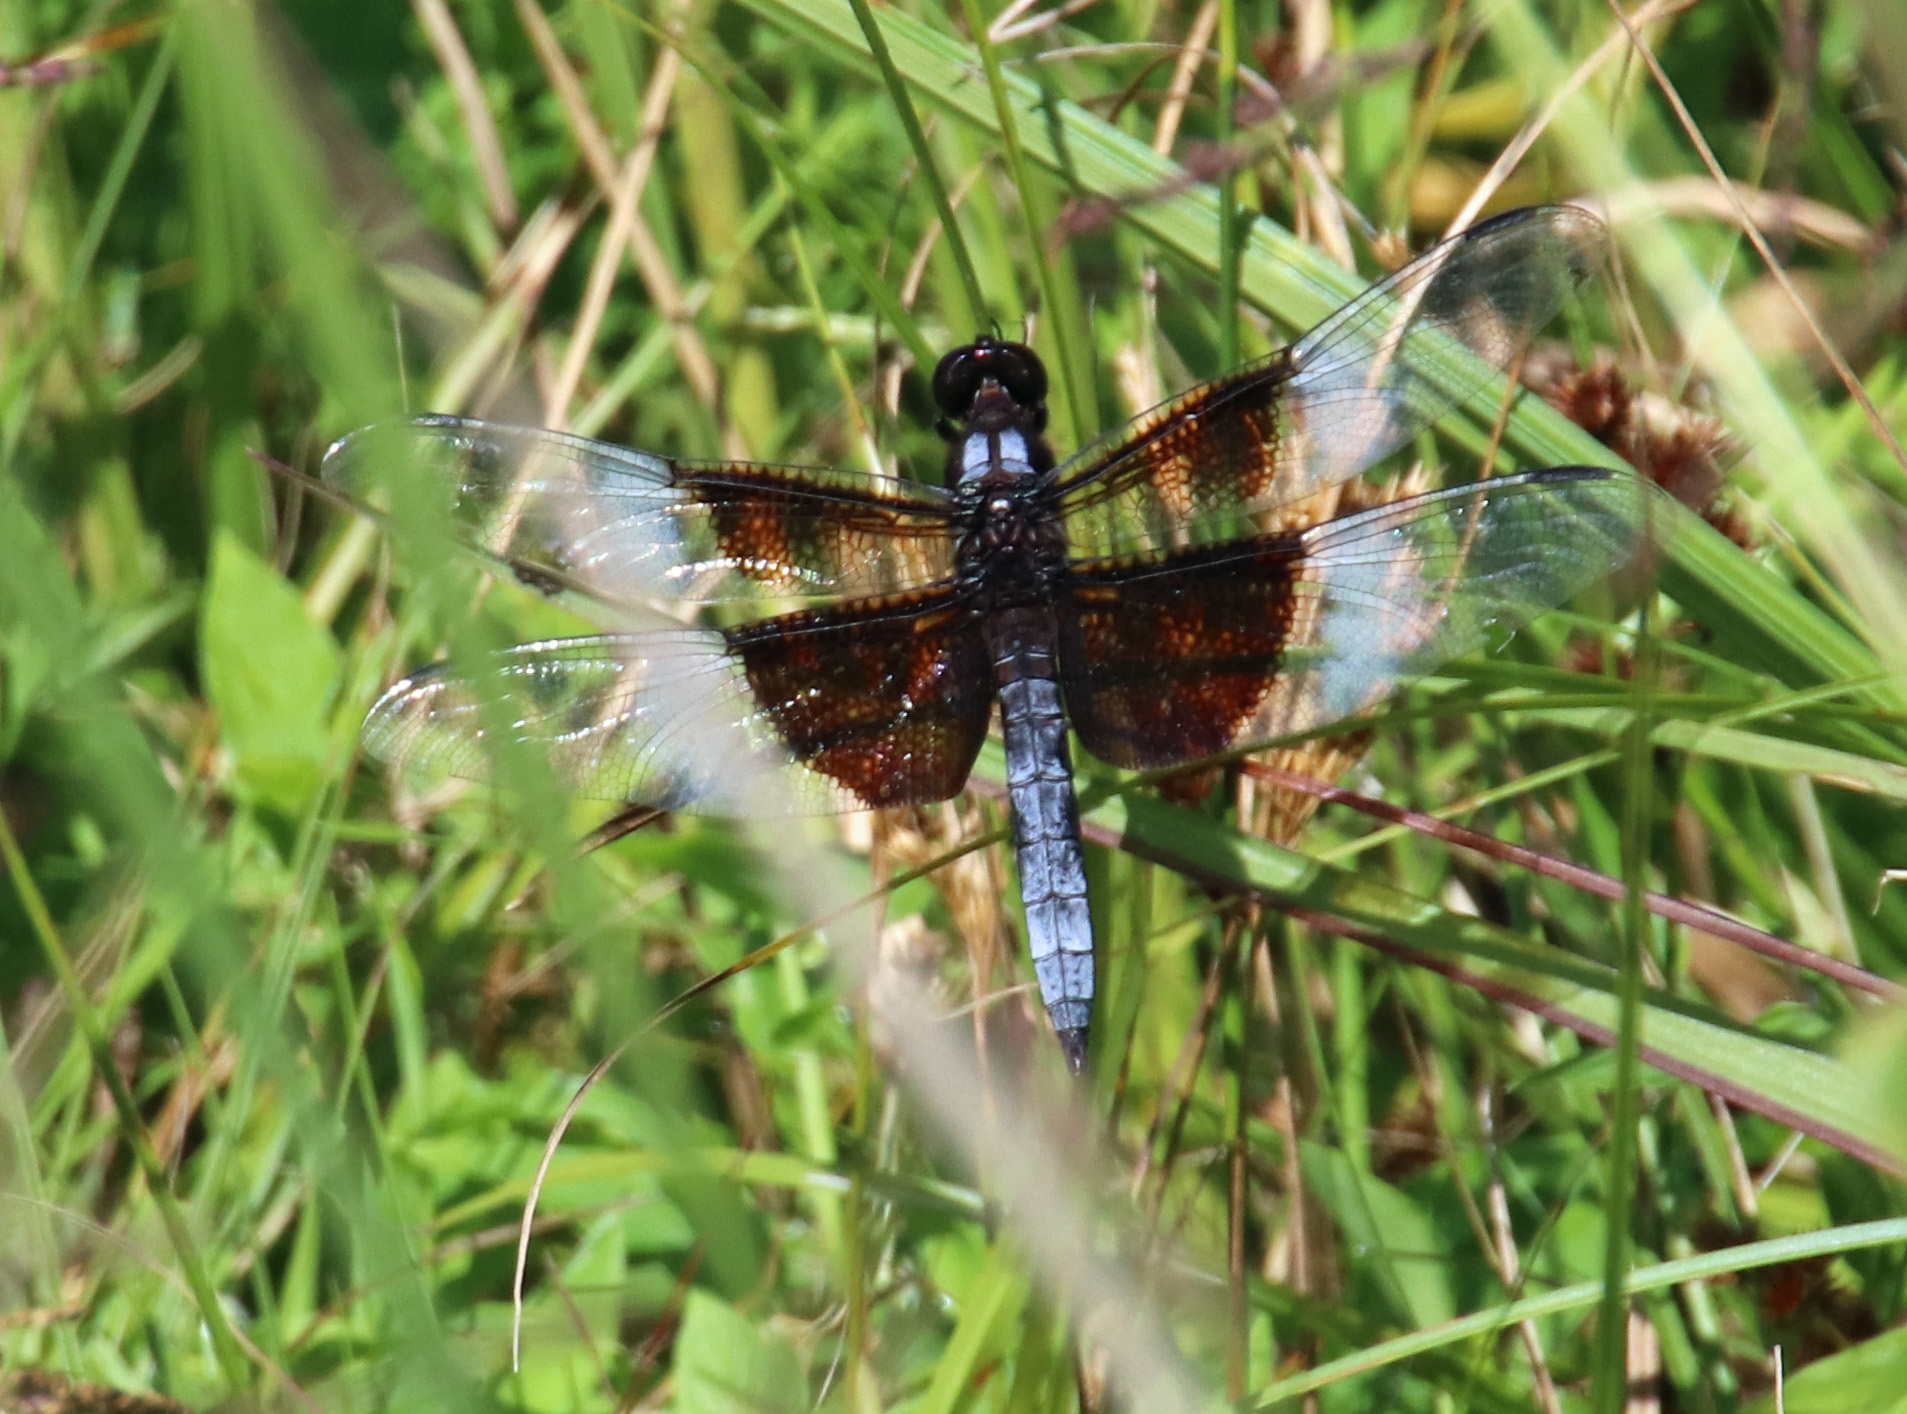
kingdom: Animalia
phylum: Arthropoda
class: Insecta
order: Odonata
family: Libellulidae
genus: Libellula
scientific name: Libellula luctuosa
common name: Widow skimmer
